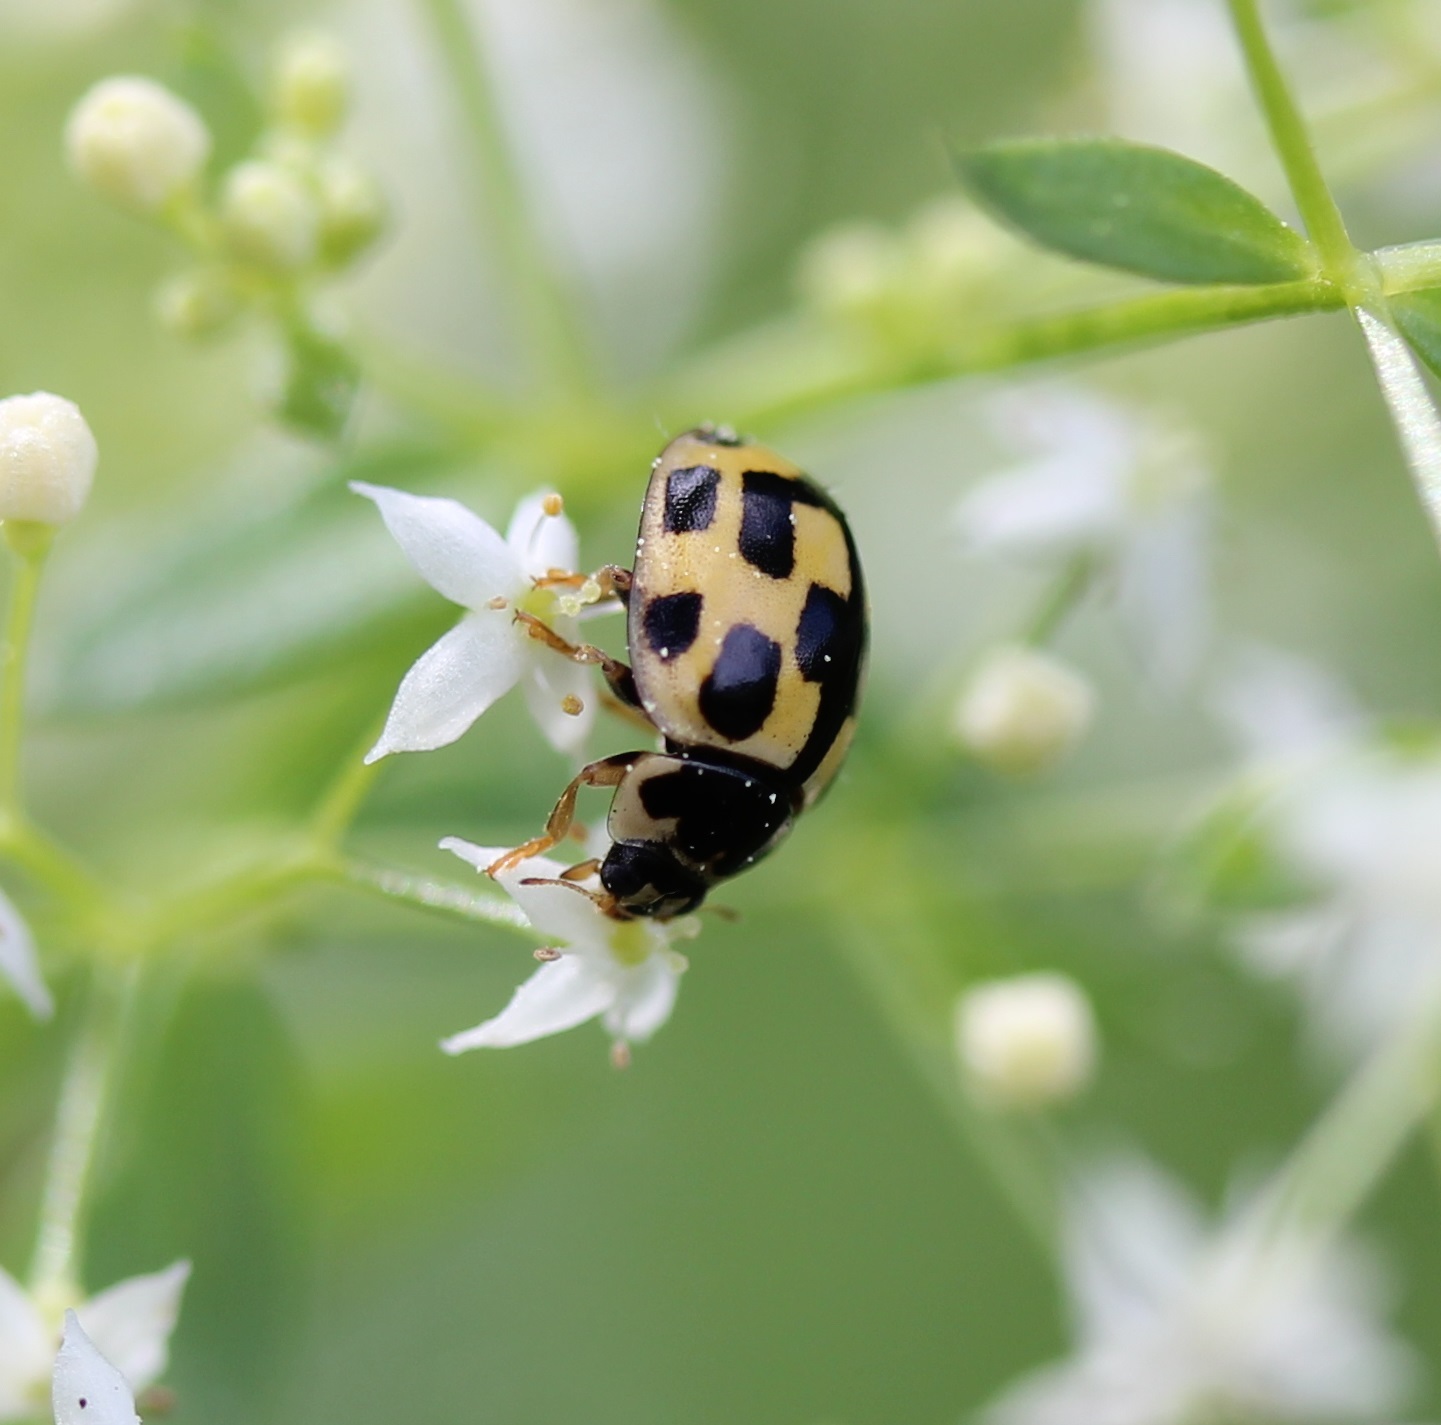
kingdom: Animalia
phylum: Arthropoda
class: Insecta
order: Coleoptera
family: Coccinellidae
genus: Propylaea
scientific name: Propylaea quatuordecimpunctata
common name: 14-spotted ladybird beetle
